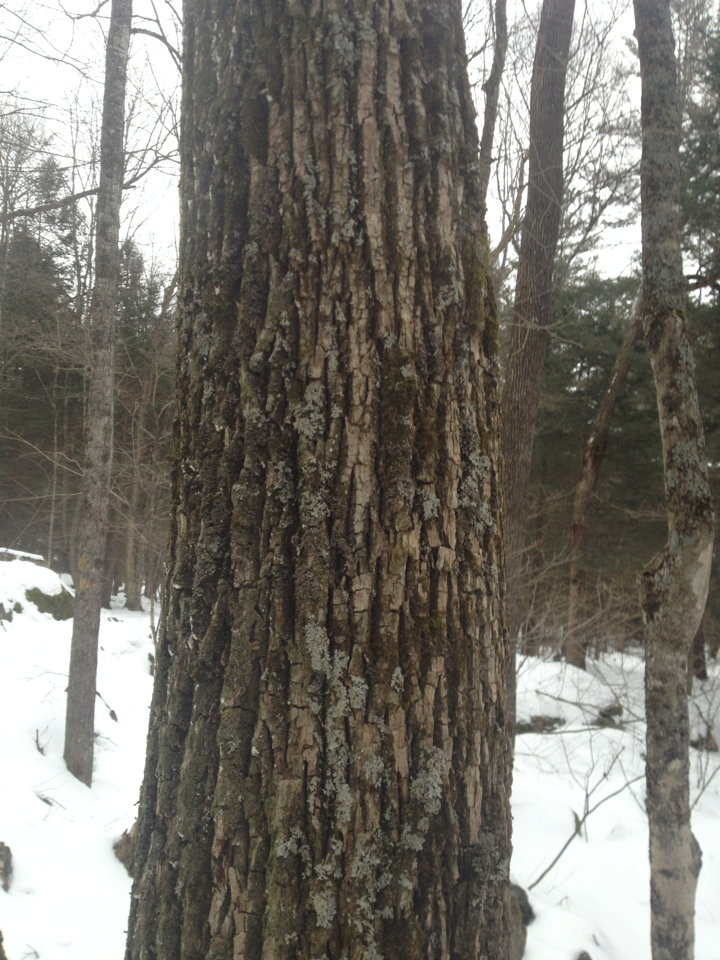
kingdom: Plantae
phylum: Tracheophyta
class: Magnoliopsida
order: Lamiales
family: Oleaceae
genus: Fraxinus
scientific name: Fraxinus americana
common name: White ash
